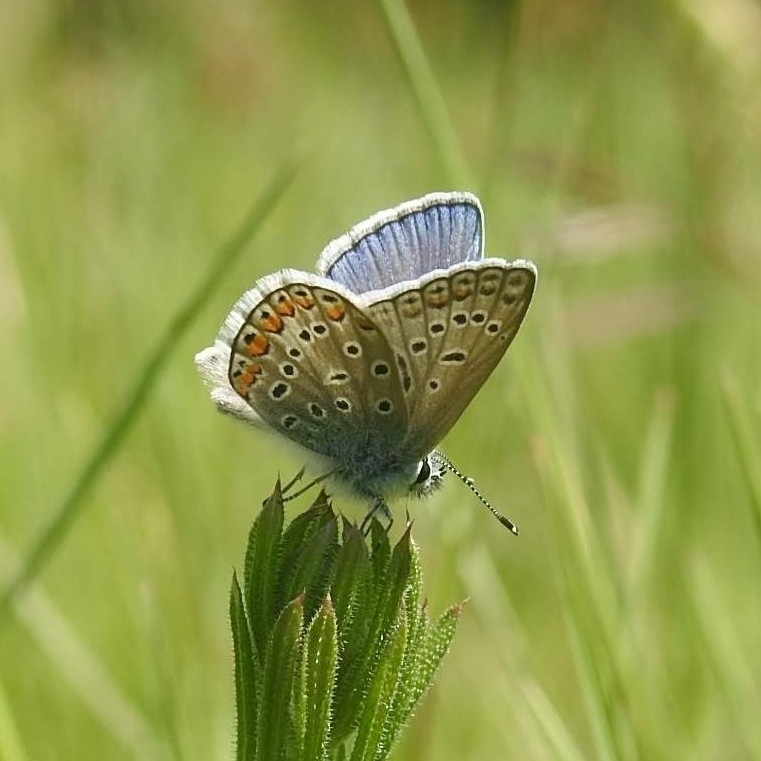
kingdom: Animalia
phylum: Arthropoda
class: Insecta
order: Lepidoptera
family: Lycaenidae
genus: Polyommatus
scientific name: Polyommatus icarus
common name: Common blue
